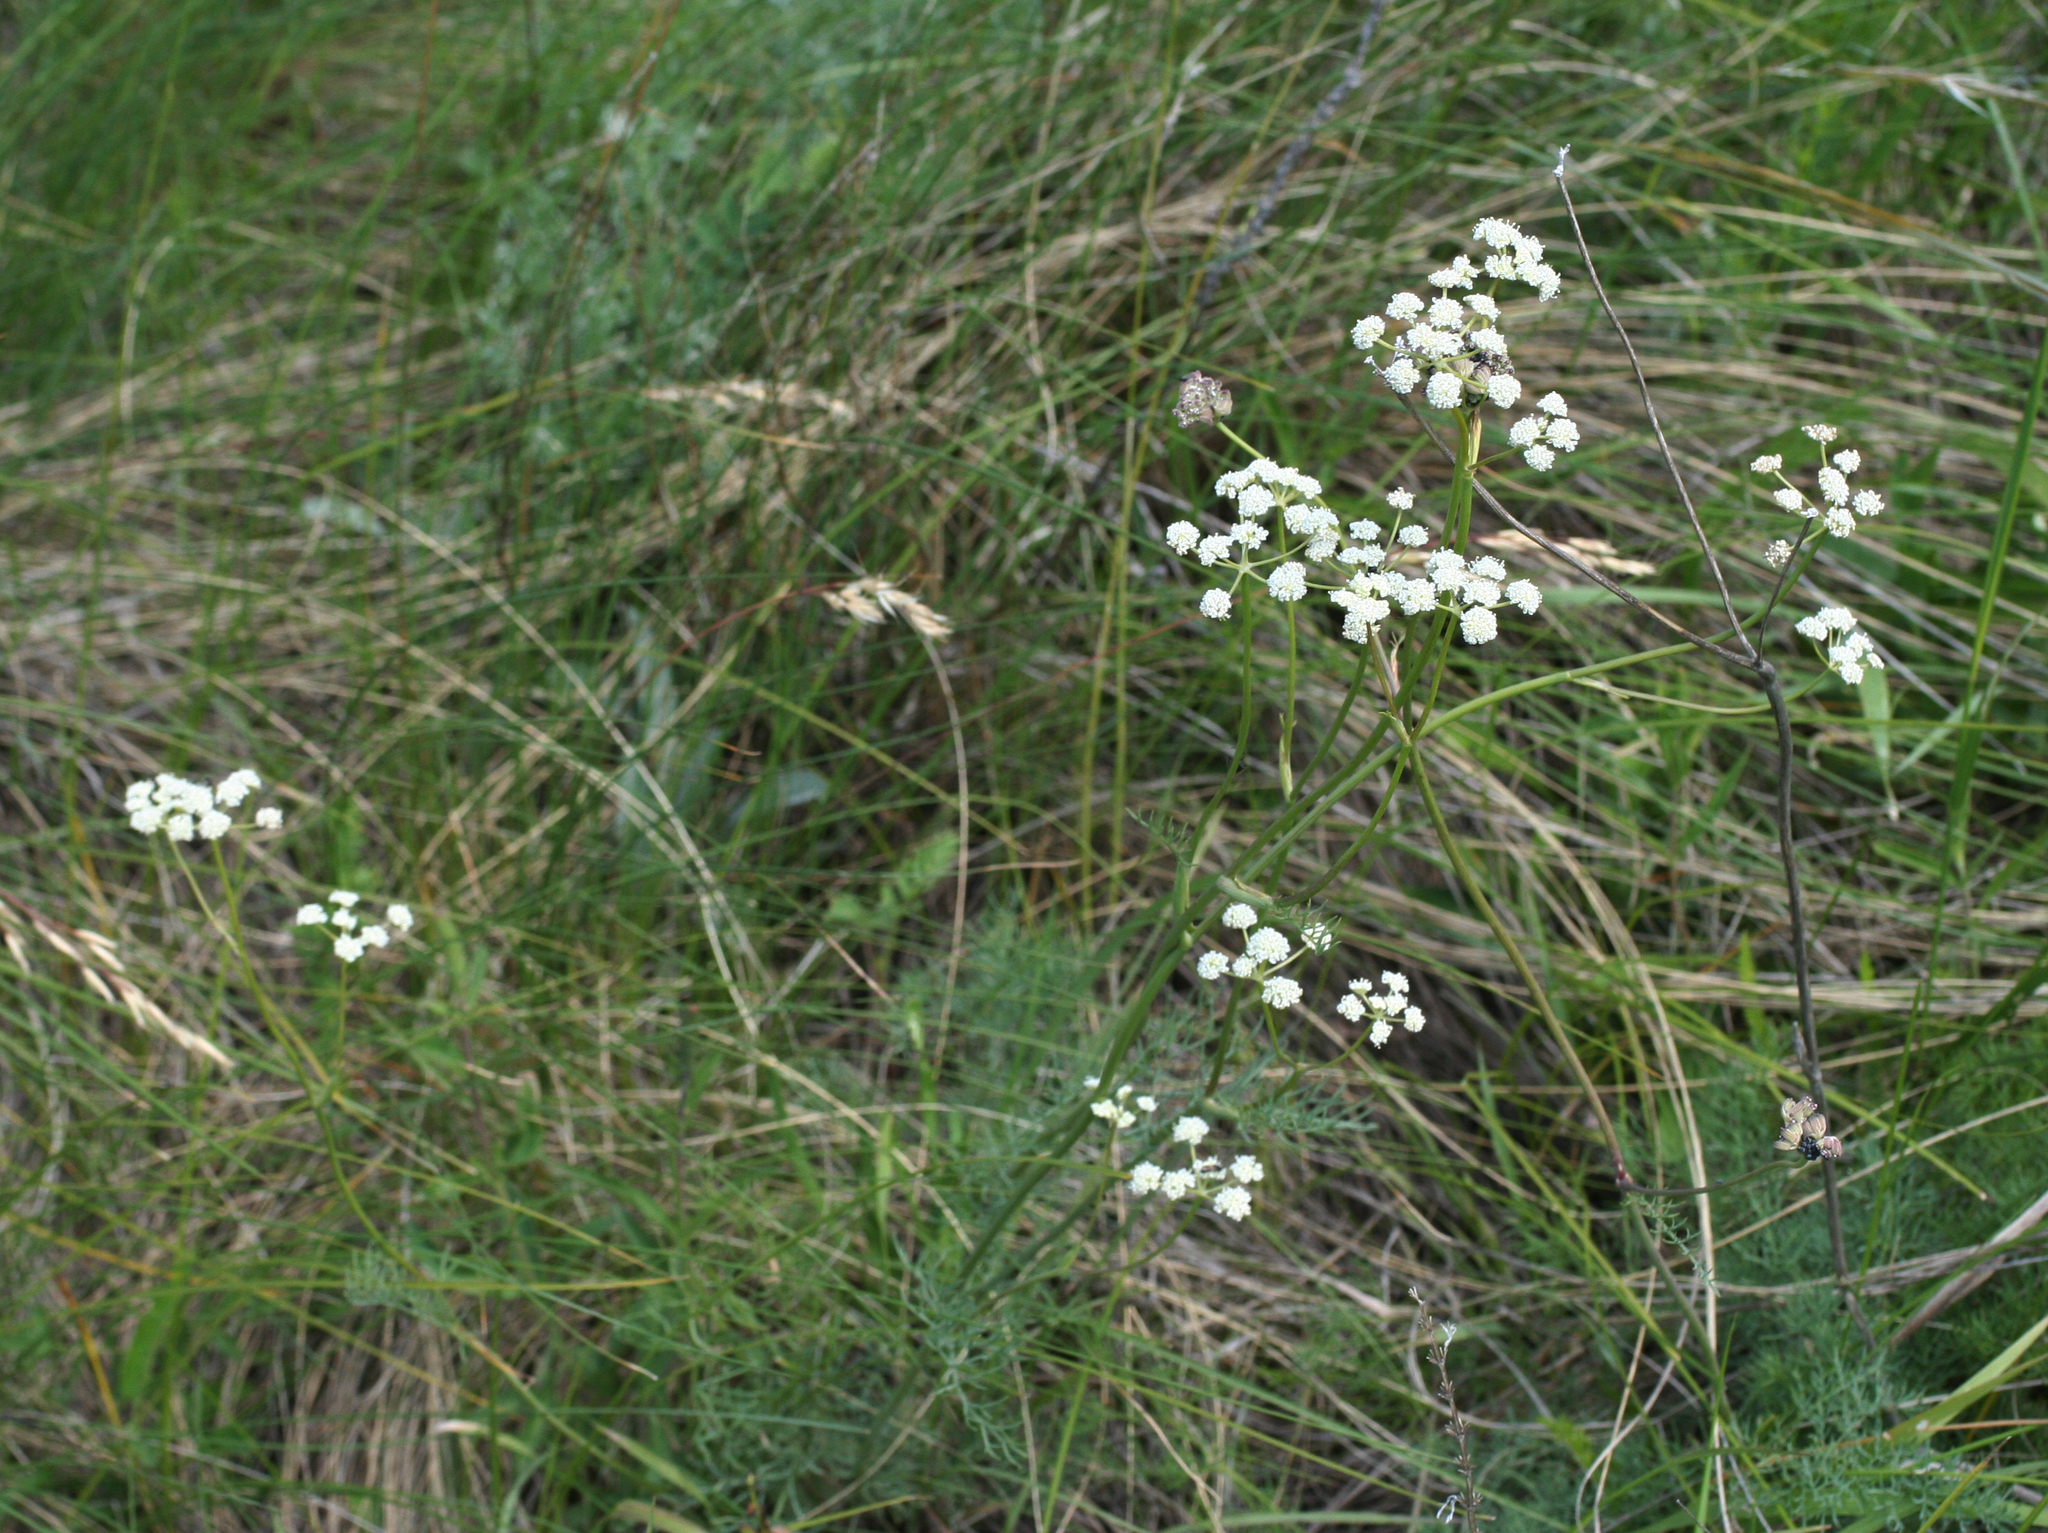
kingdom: Plantae
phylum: Tracheophyta
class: Magnoliopsida
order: Apiales
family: Apiaceae
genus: Seseli
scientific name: Seseli ledebourii
